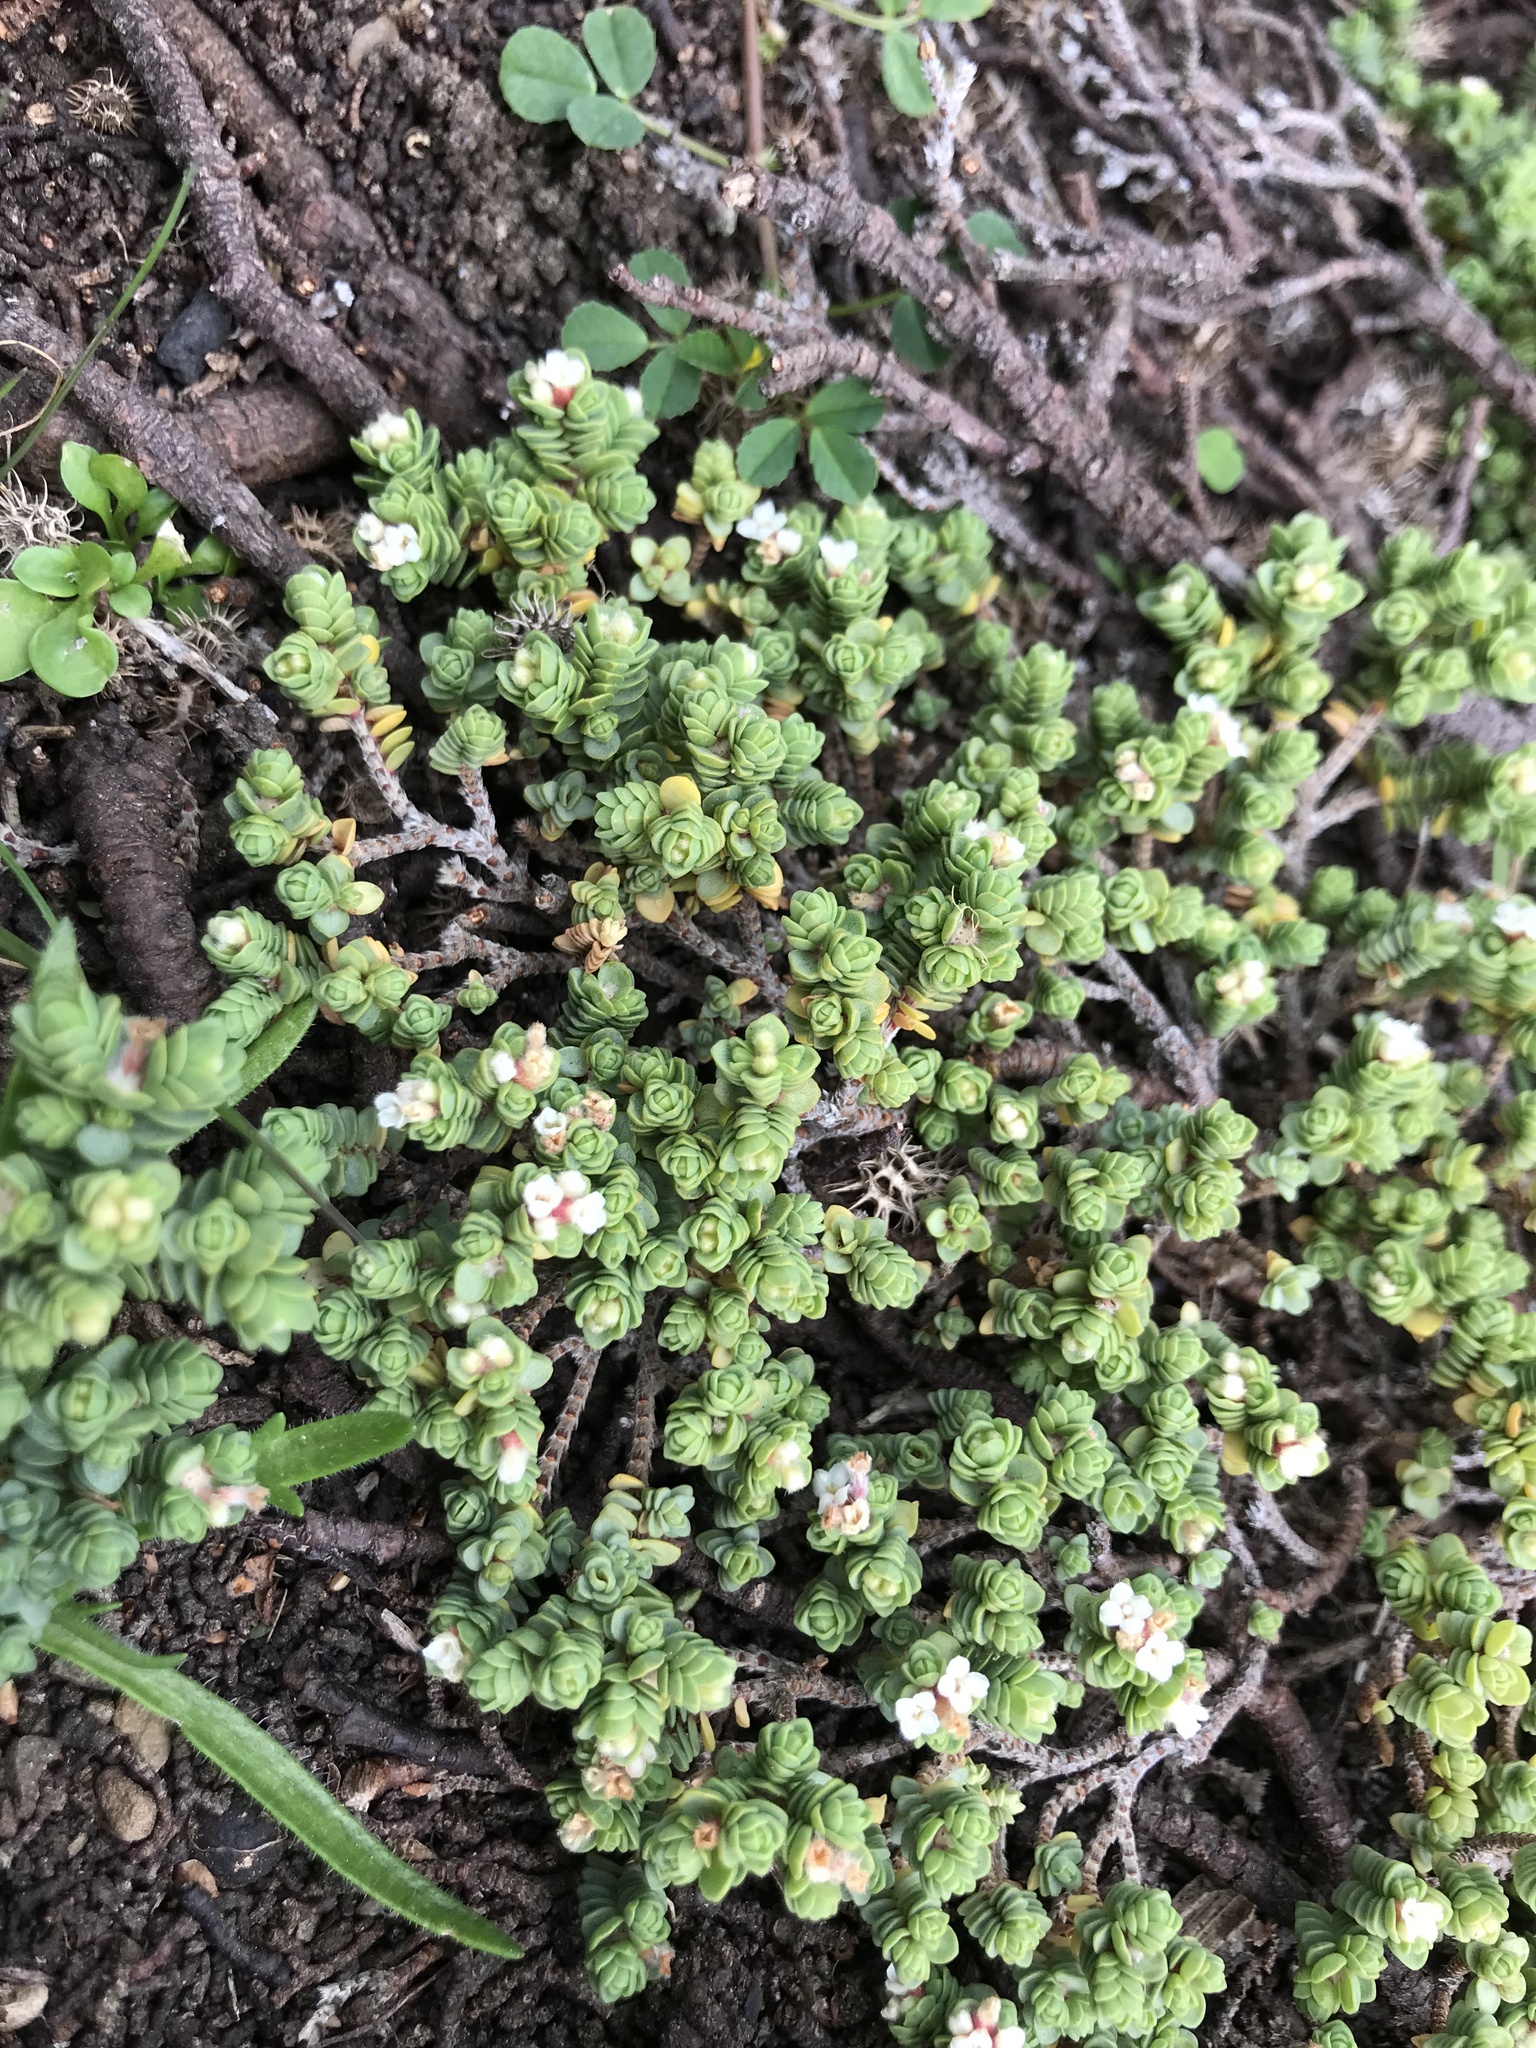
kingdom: Plantae
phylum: Tracheophyta
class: Magnoliopsida
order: Malvales
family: Thymelaeaceae
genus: Pimelea
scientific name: Pimelea carnosa
